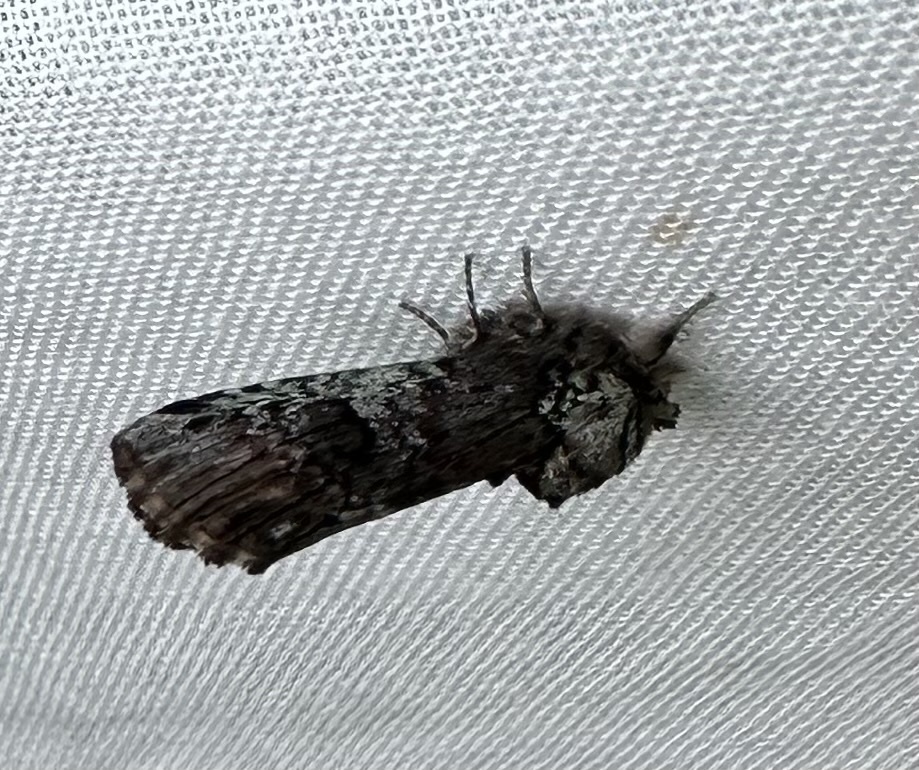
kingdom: Animalia
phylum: Arthropoda
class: Insecta
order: Lepidoptera
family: Notodontidae
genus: Schizura
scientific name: Schizura
